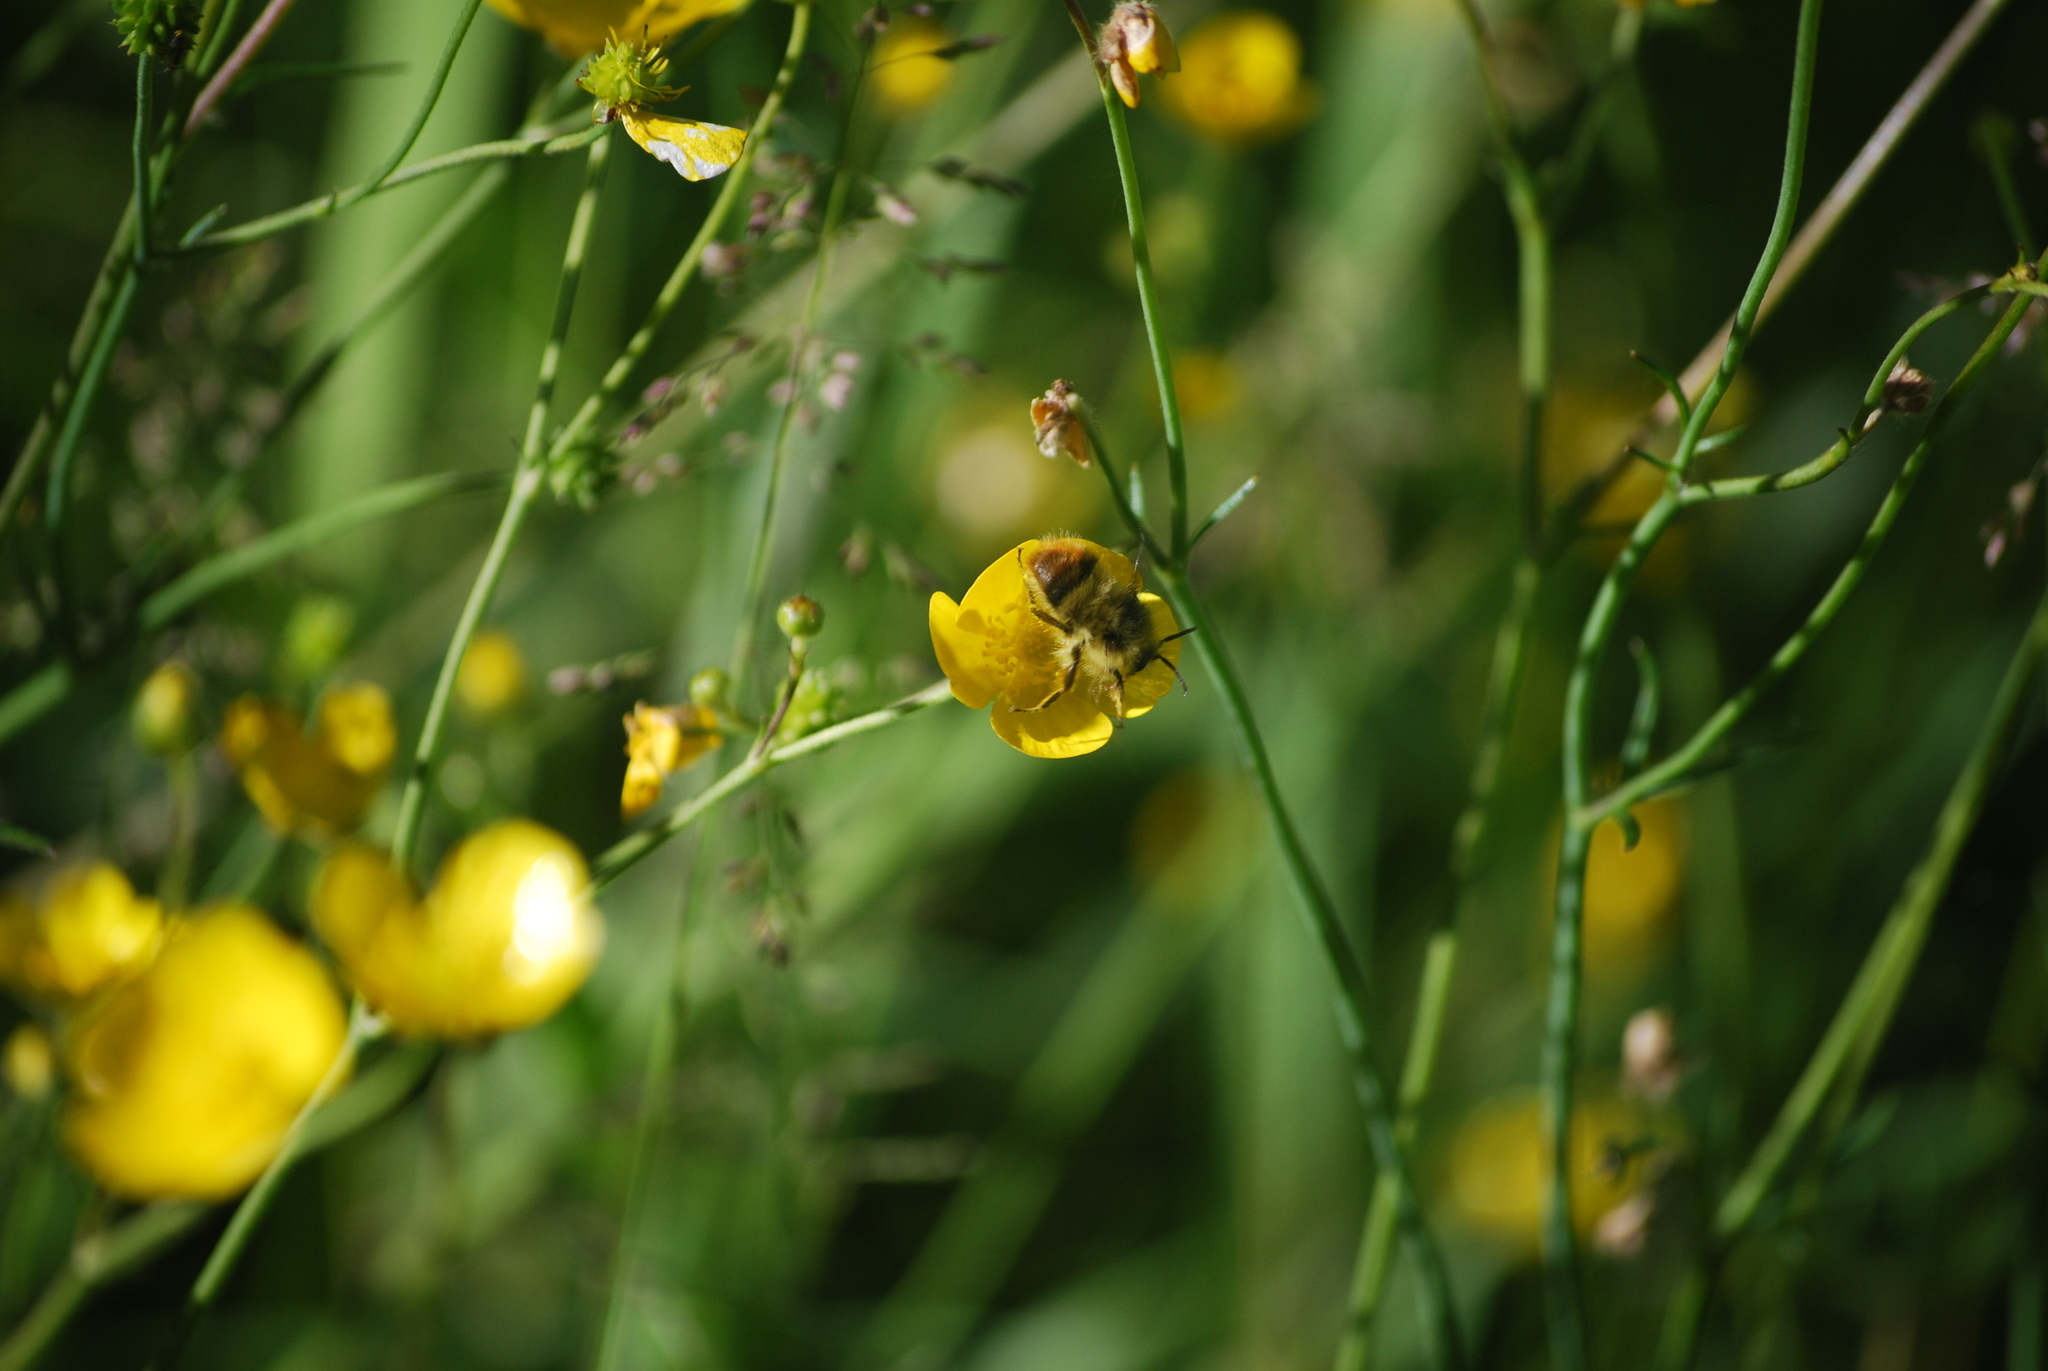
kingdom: Animalia
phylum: Arthropoda
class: Insecta
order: Hymenoptera
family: Apidae
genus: Bombus
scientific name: Bombus mixtus
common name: Fuzzy-horned bumble bee
